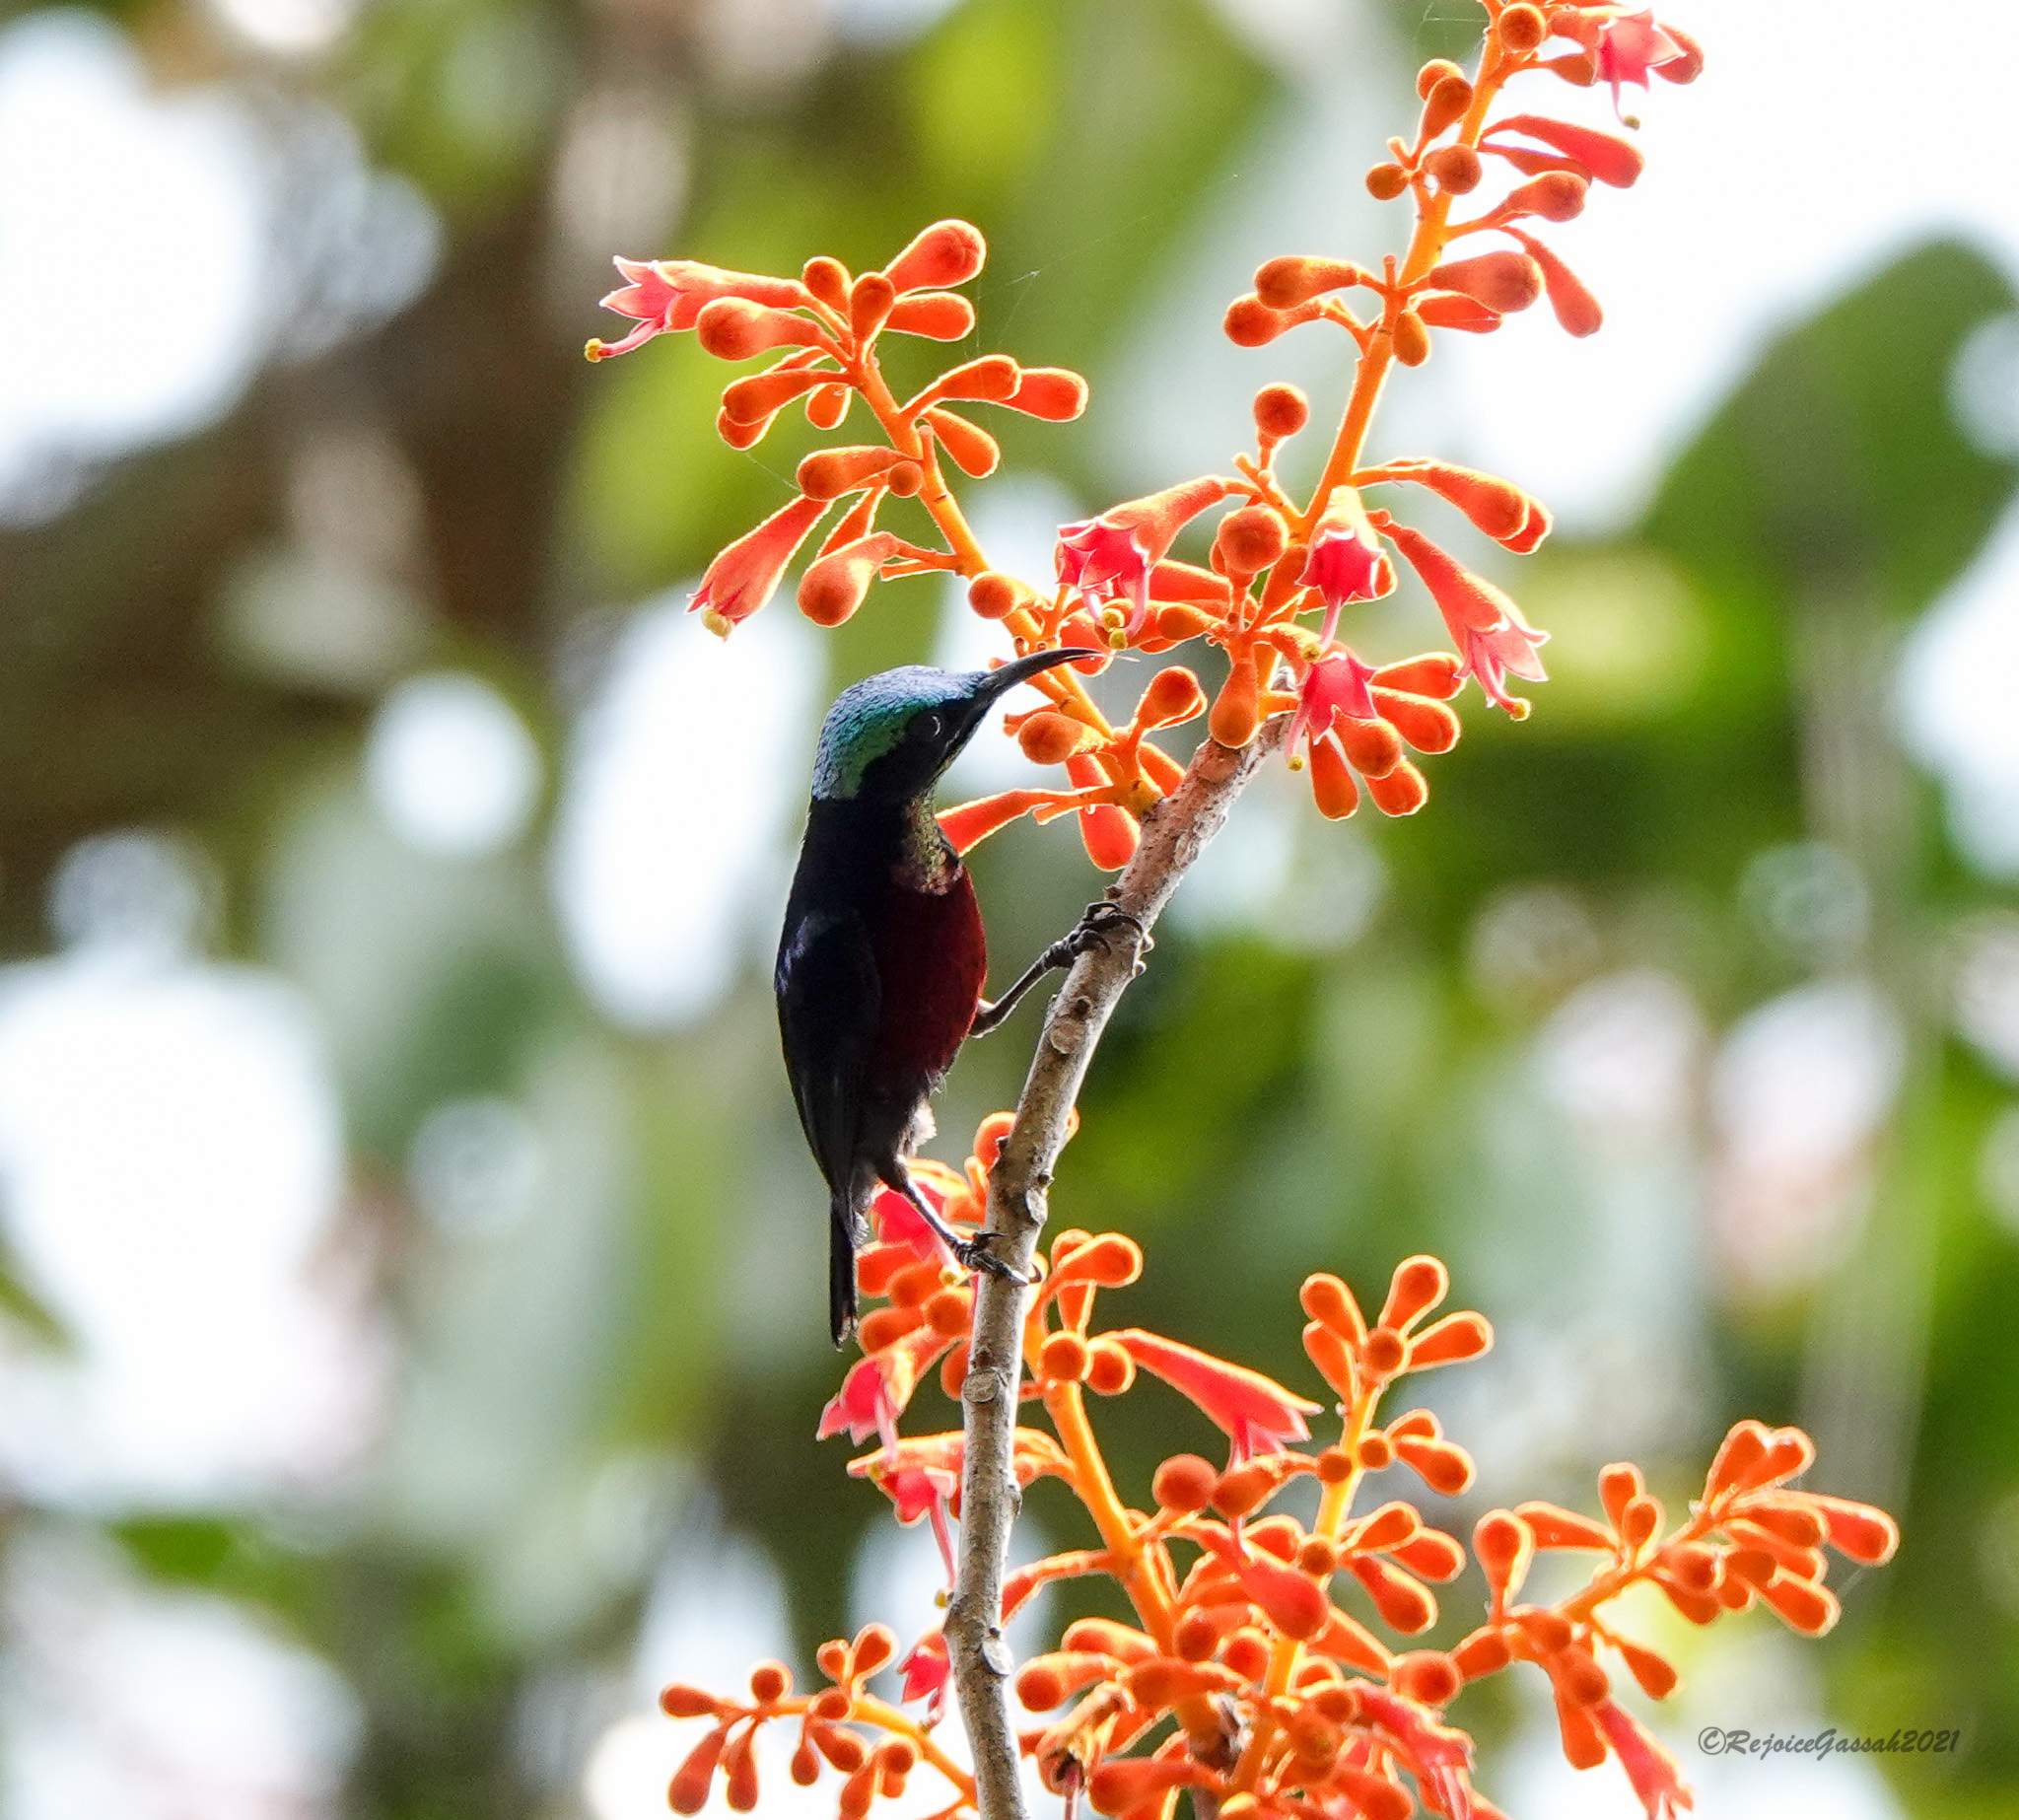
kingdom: Animalia
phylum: Chordata
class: Aves
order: Passeriformes
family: Nectariniidae
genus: Leptocoma
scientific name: Leptocoma brasiliana
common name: Van hasselt's sunbird
